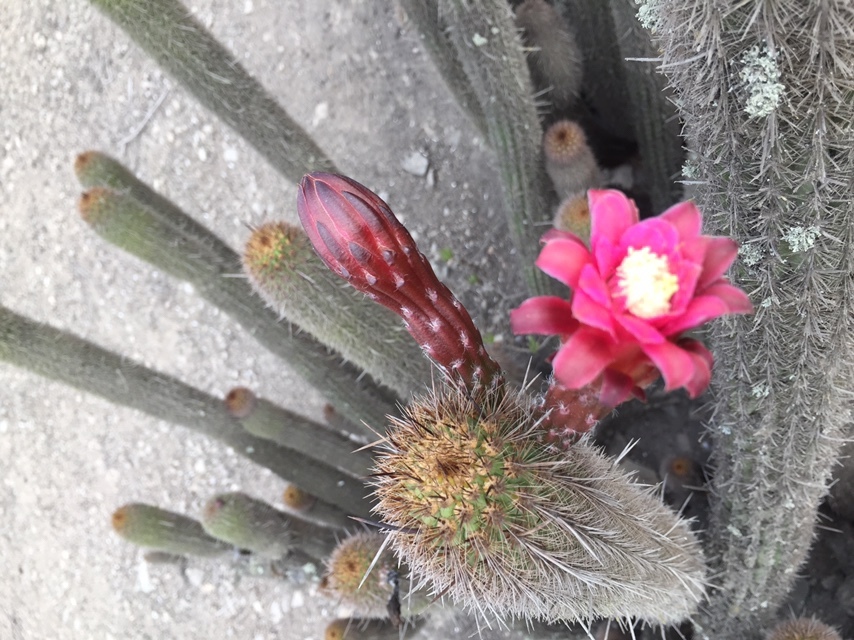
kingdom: Plantae
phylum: Tracheophyta
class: Magnoliopsida
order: Caryophyllales
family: Cactaceae
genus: Haageocereus
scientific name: Haageocereus pseudomelanostele
